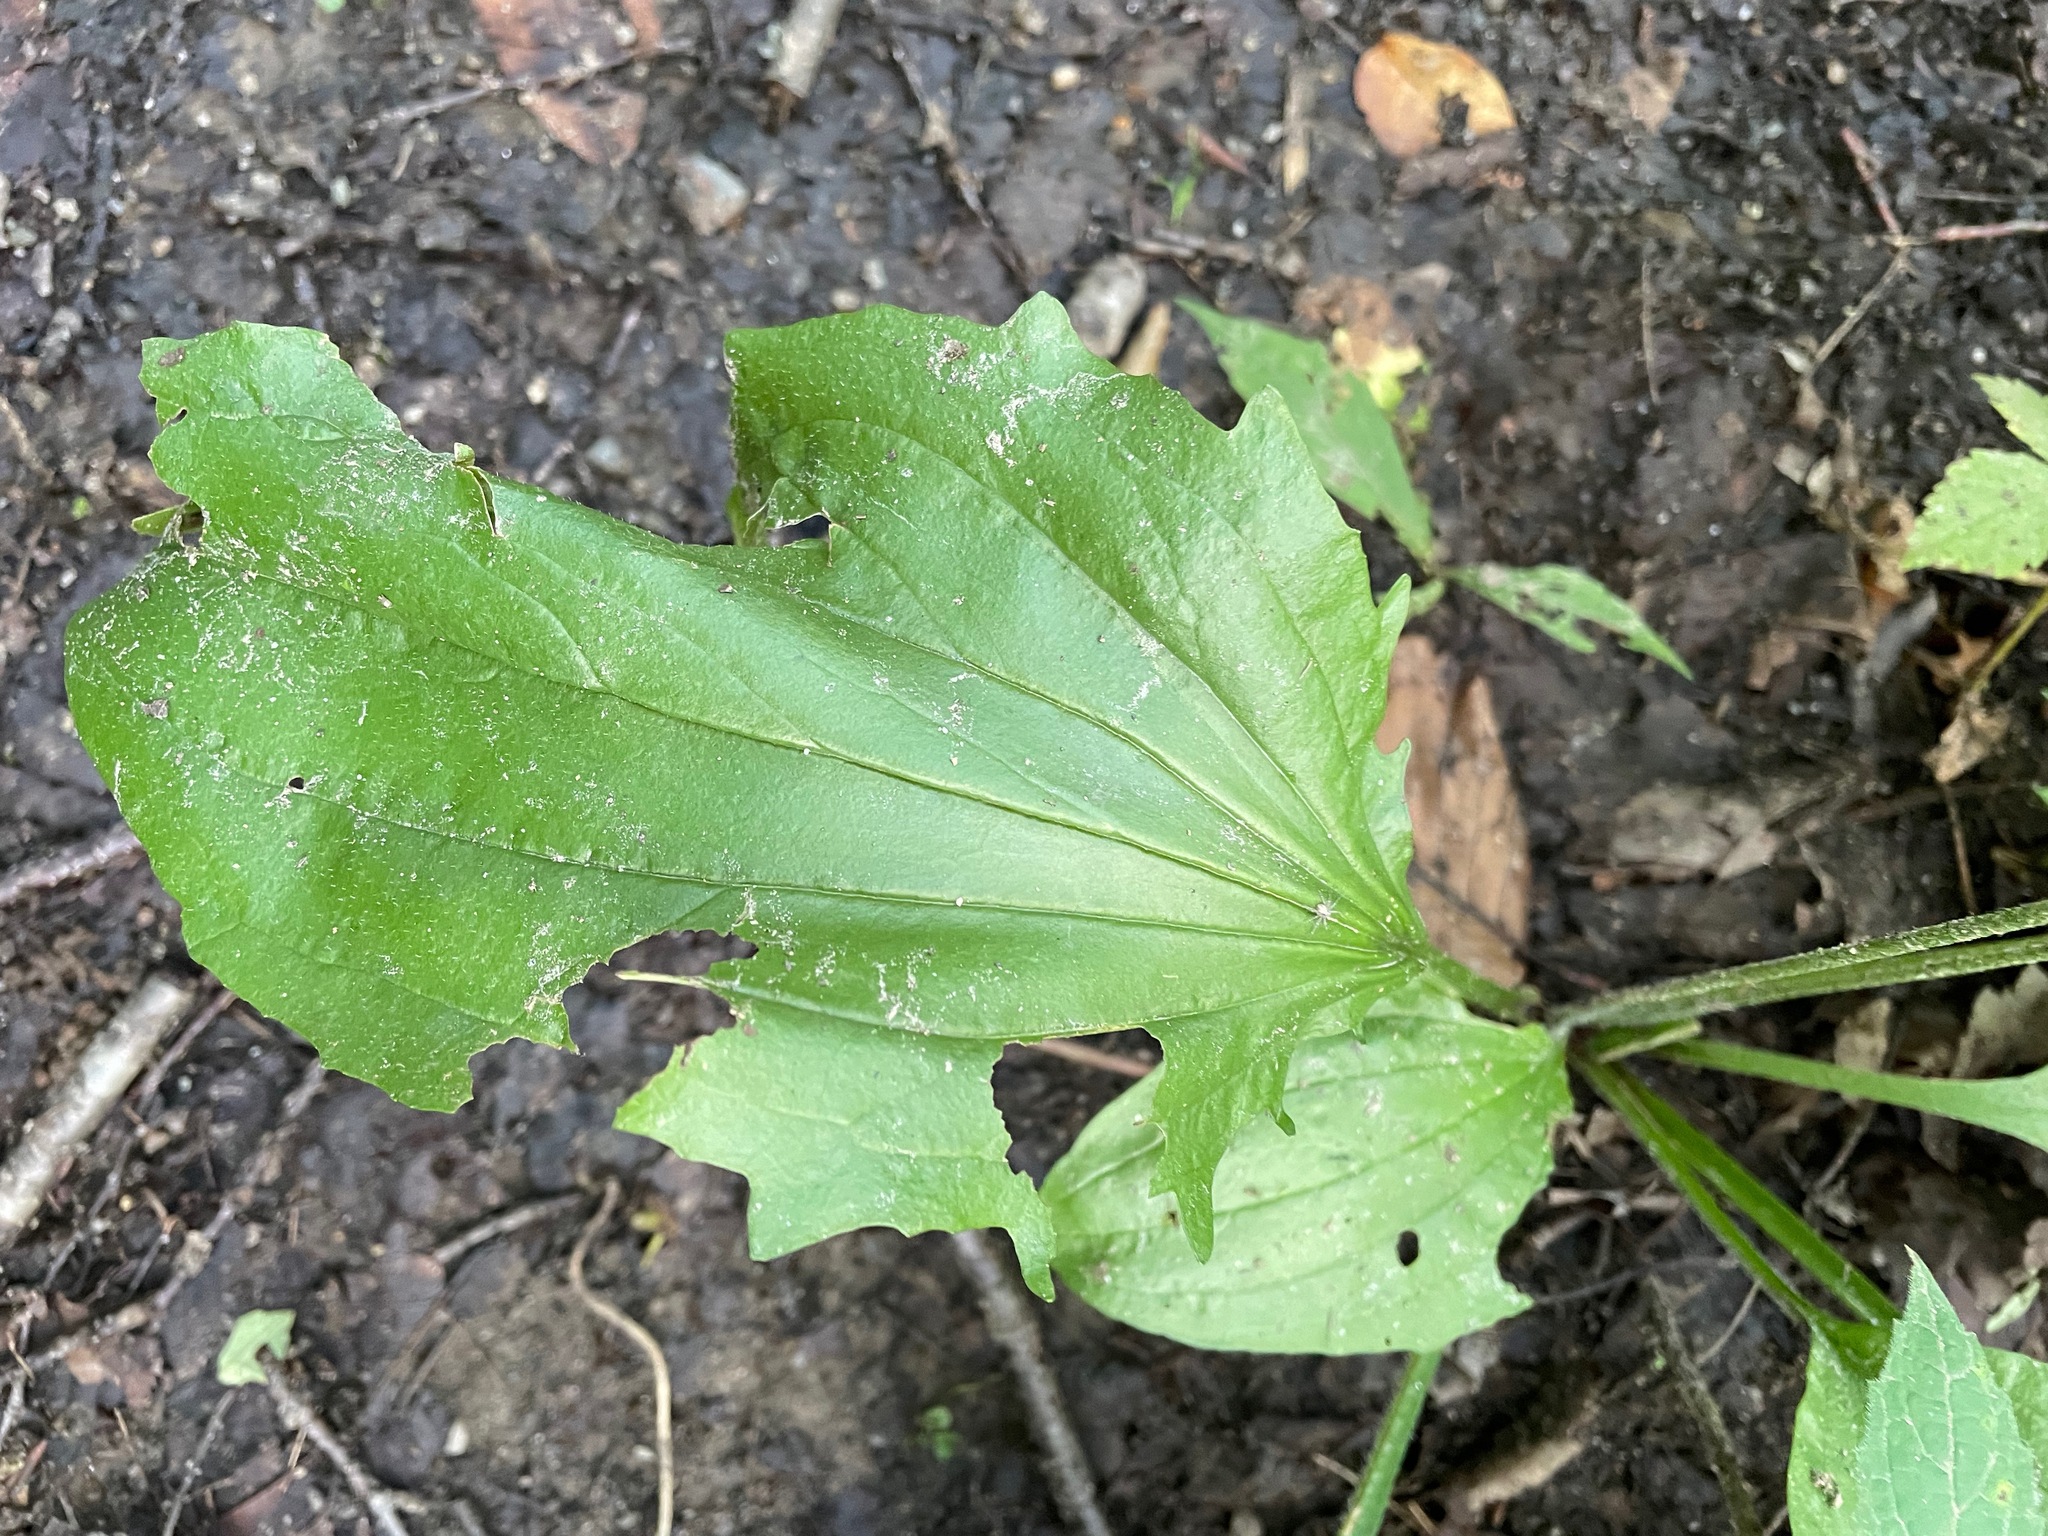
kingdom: Plantae
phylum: Tracheophyta
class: Magnoliopsida
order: Lamiales
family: Plantaginaceae
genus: Plantago
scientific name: Plantago rugelii
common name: American plantain
